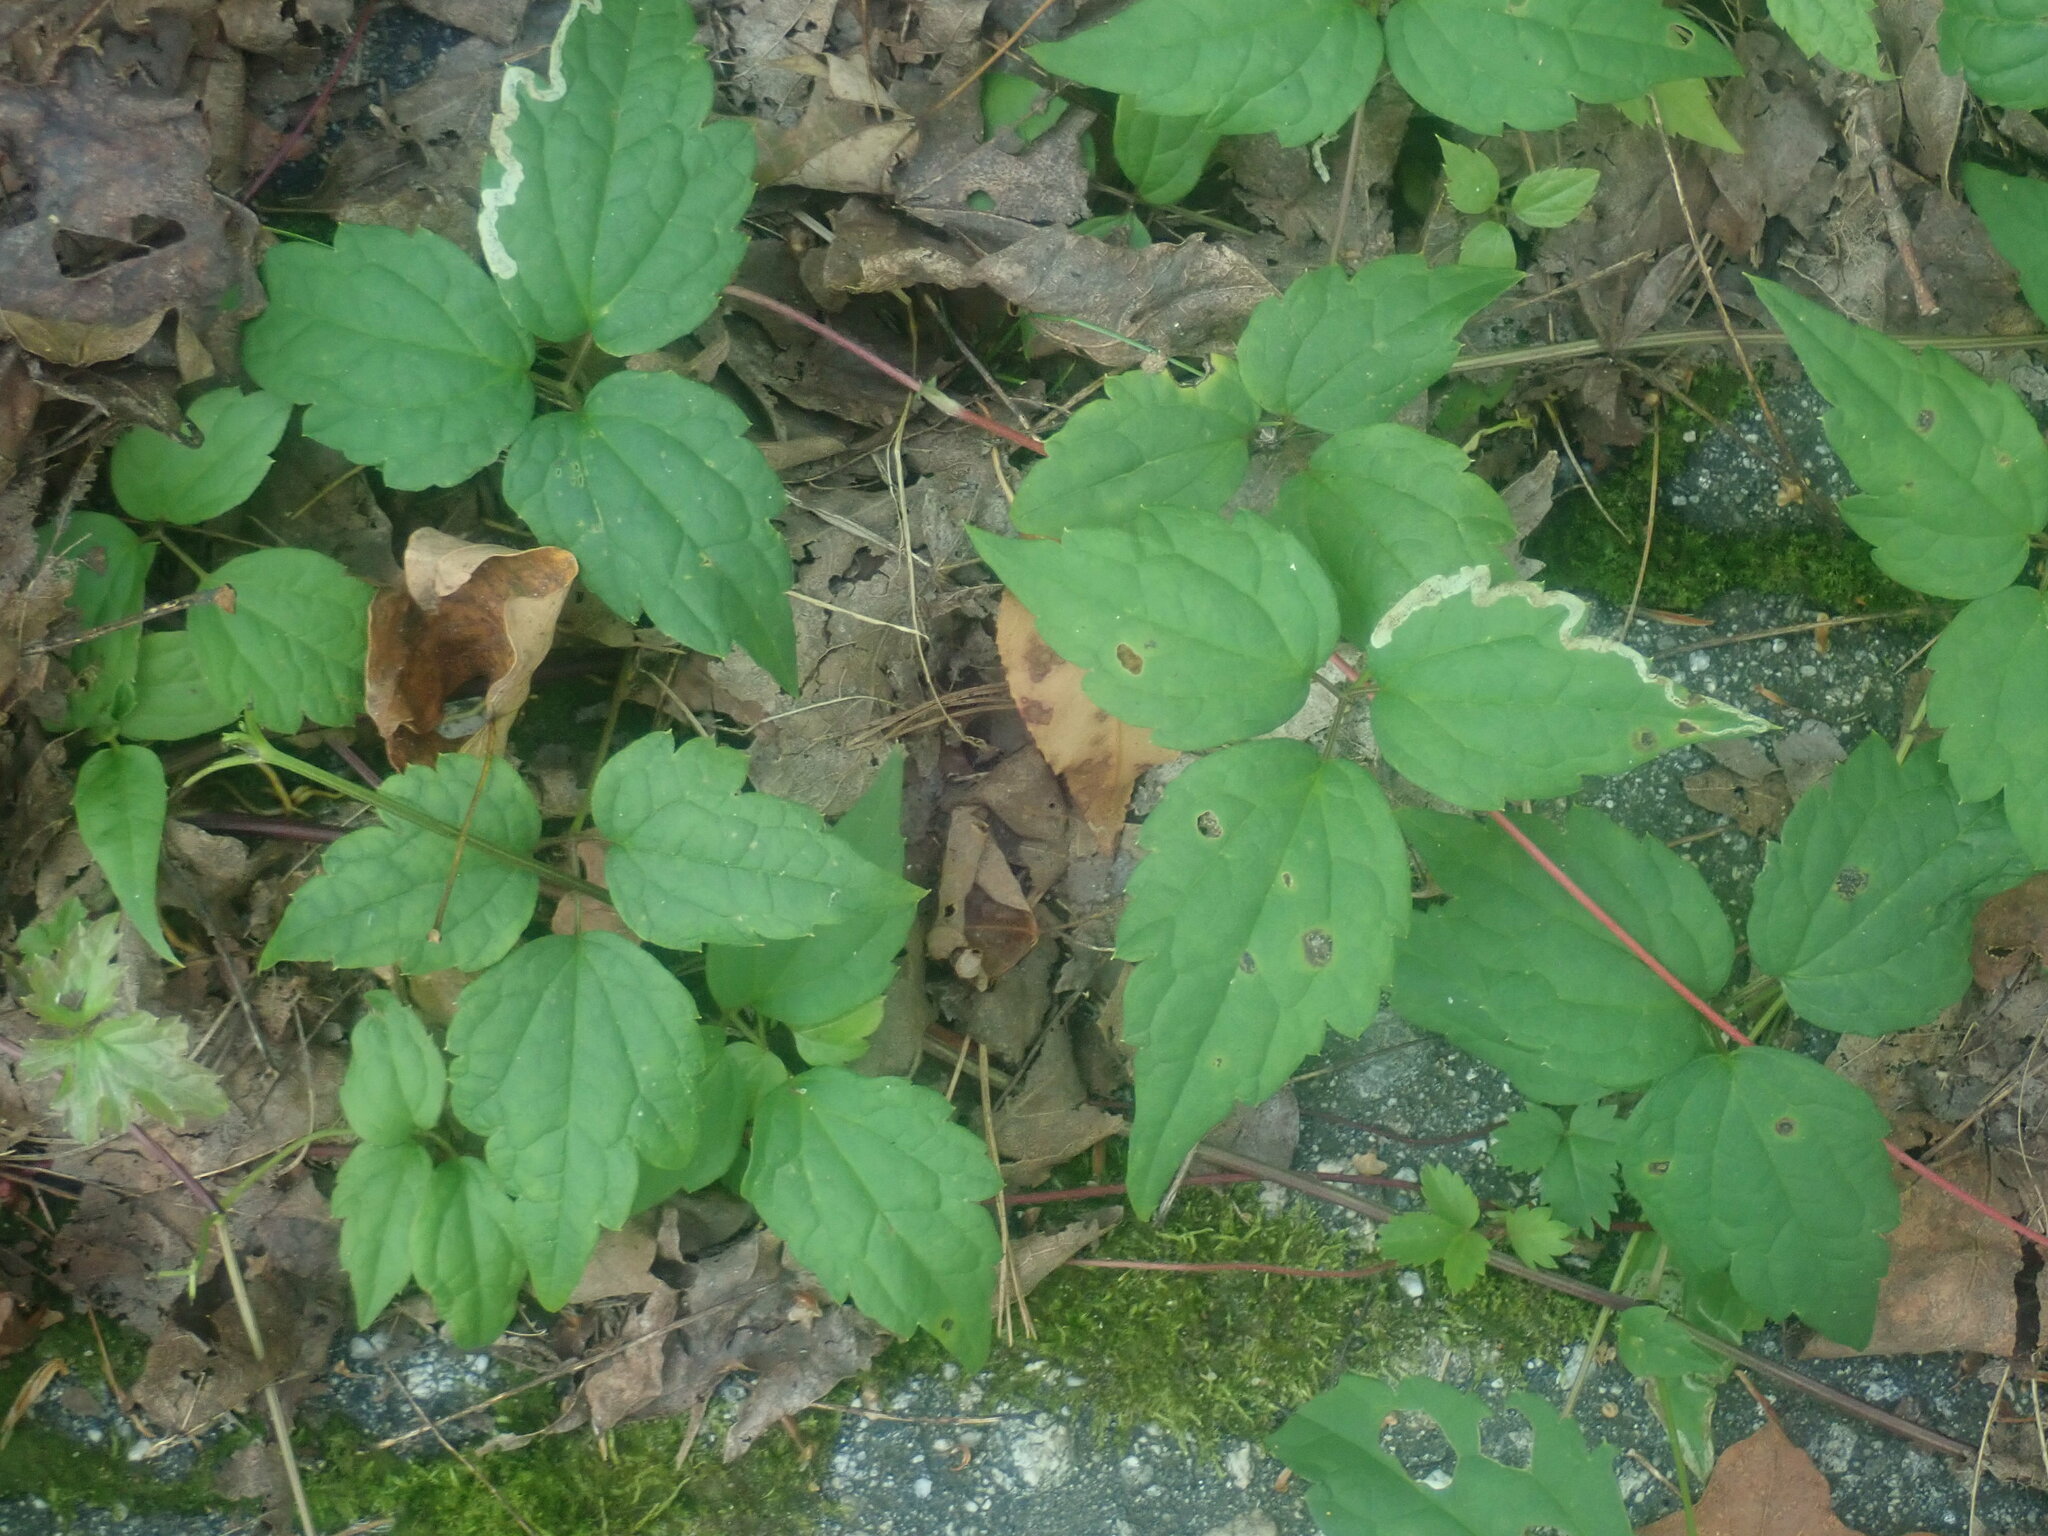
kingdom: Plantae
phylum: Tracheophyta
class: Magnoliopsida
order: Ranunculales
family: Ranunculaceae
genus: Clematis
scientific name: Clematis virginiana
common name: Virgin's-bower
